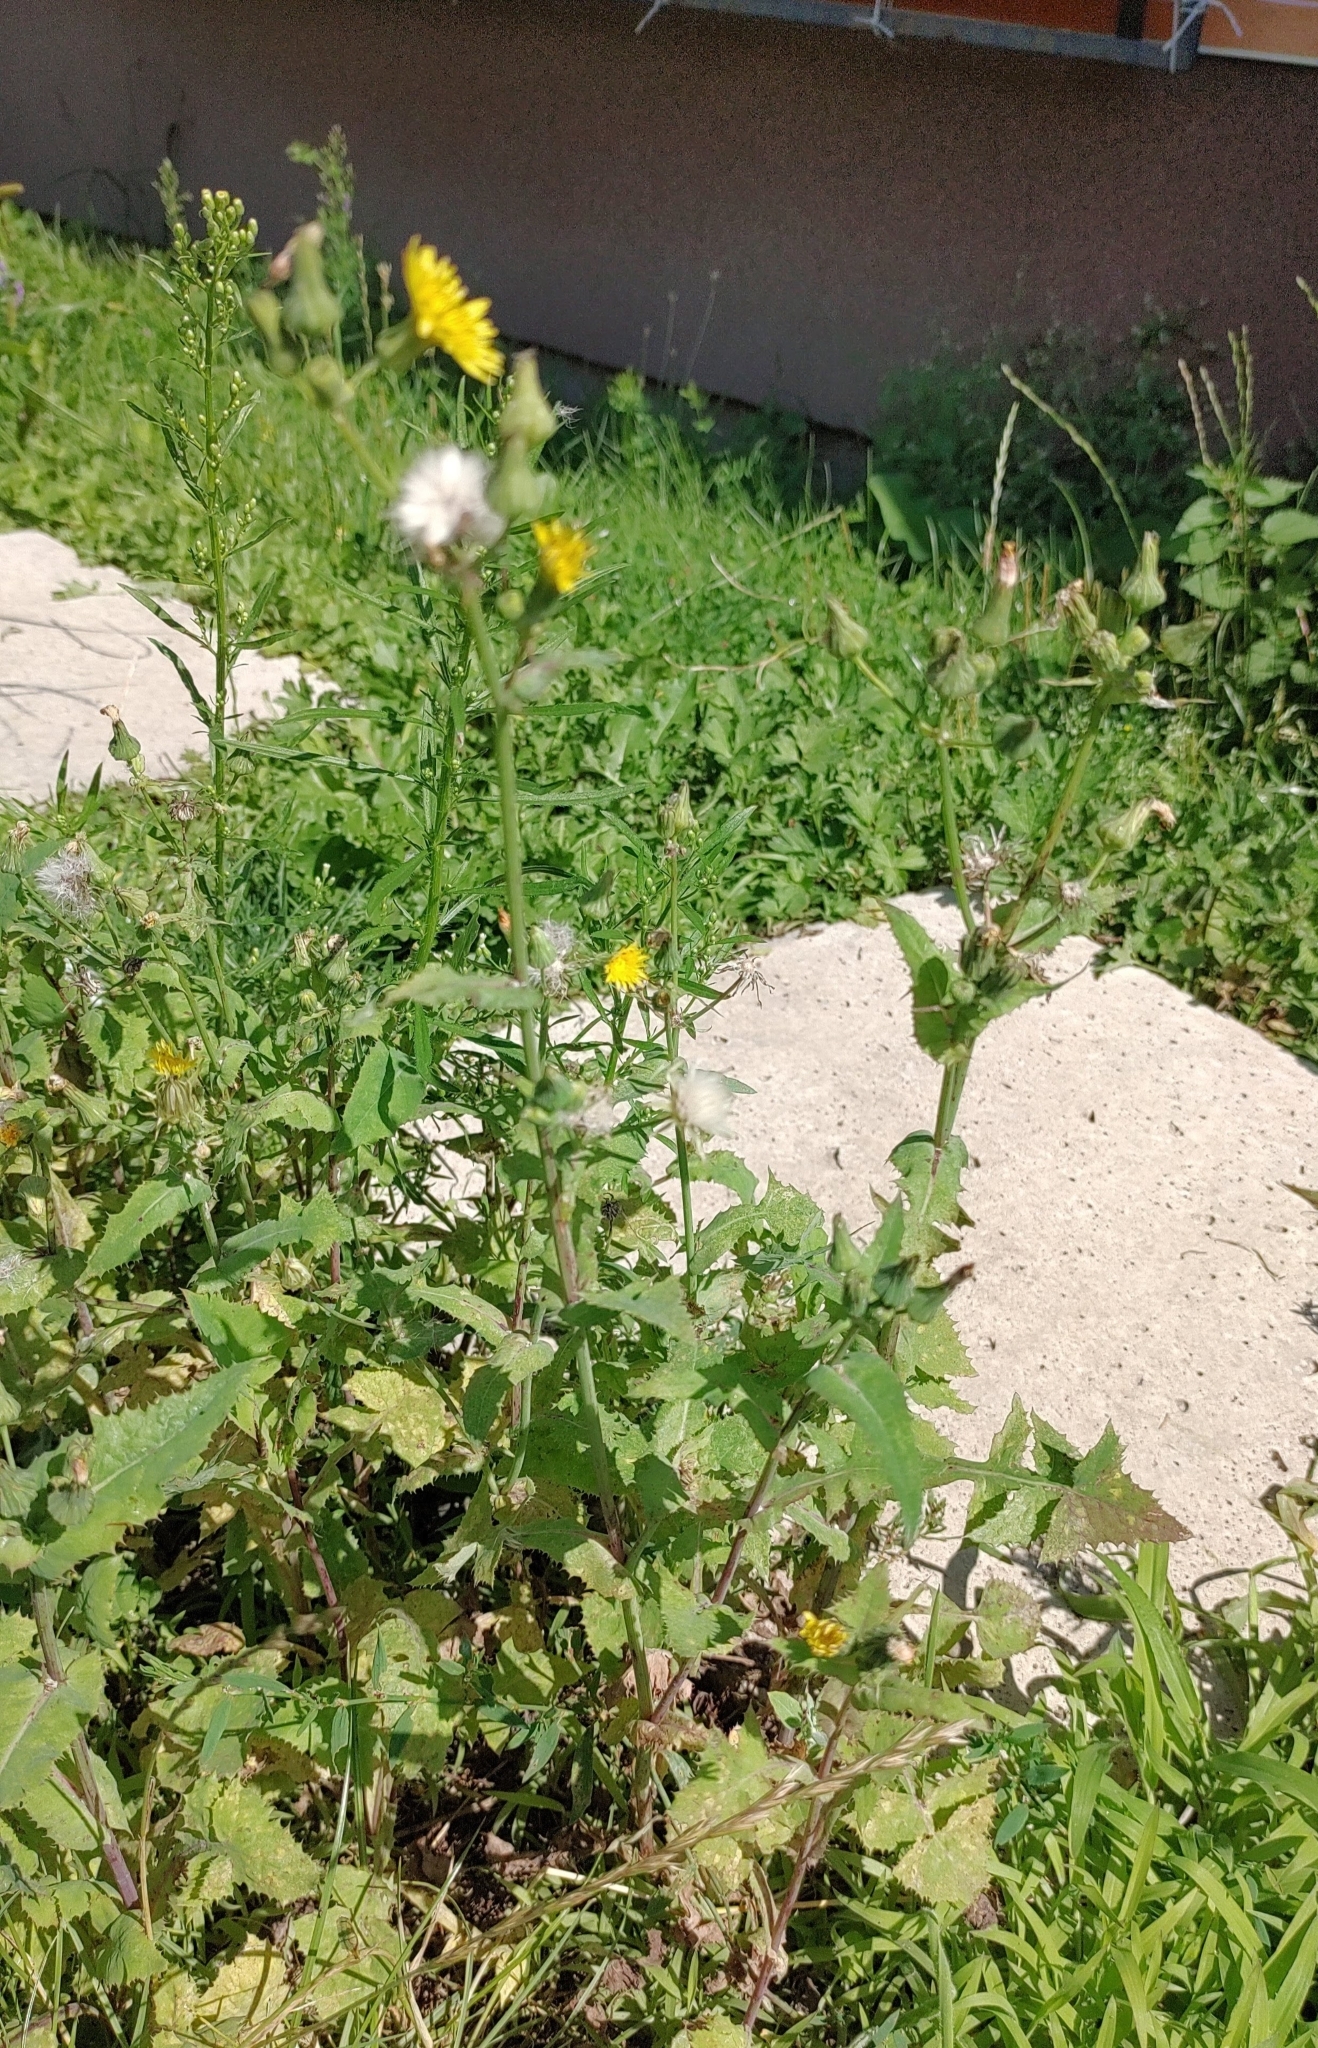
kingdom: Plantae
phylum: Tracheophyta
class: Magnoliopsida
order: Asterales
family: Asteraceae
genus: Sonchus
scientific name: Sonchus oleraceus
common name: Common sowthistle
